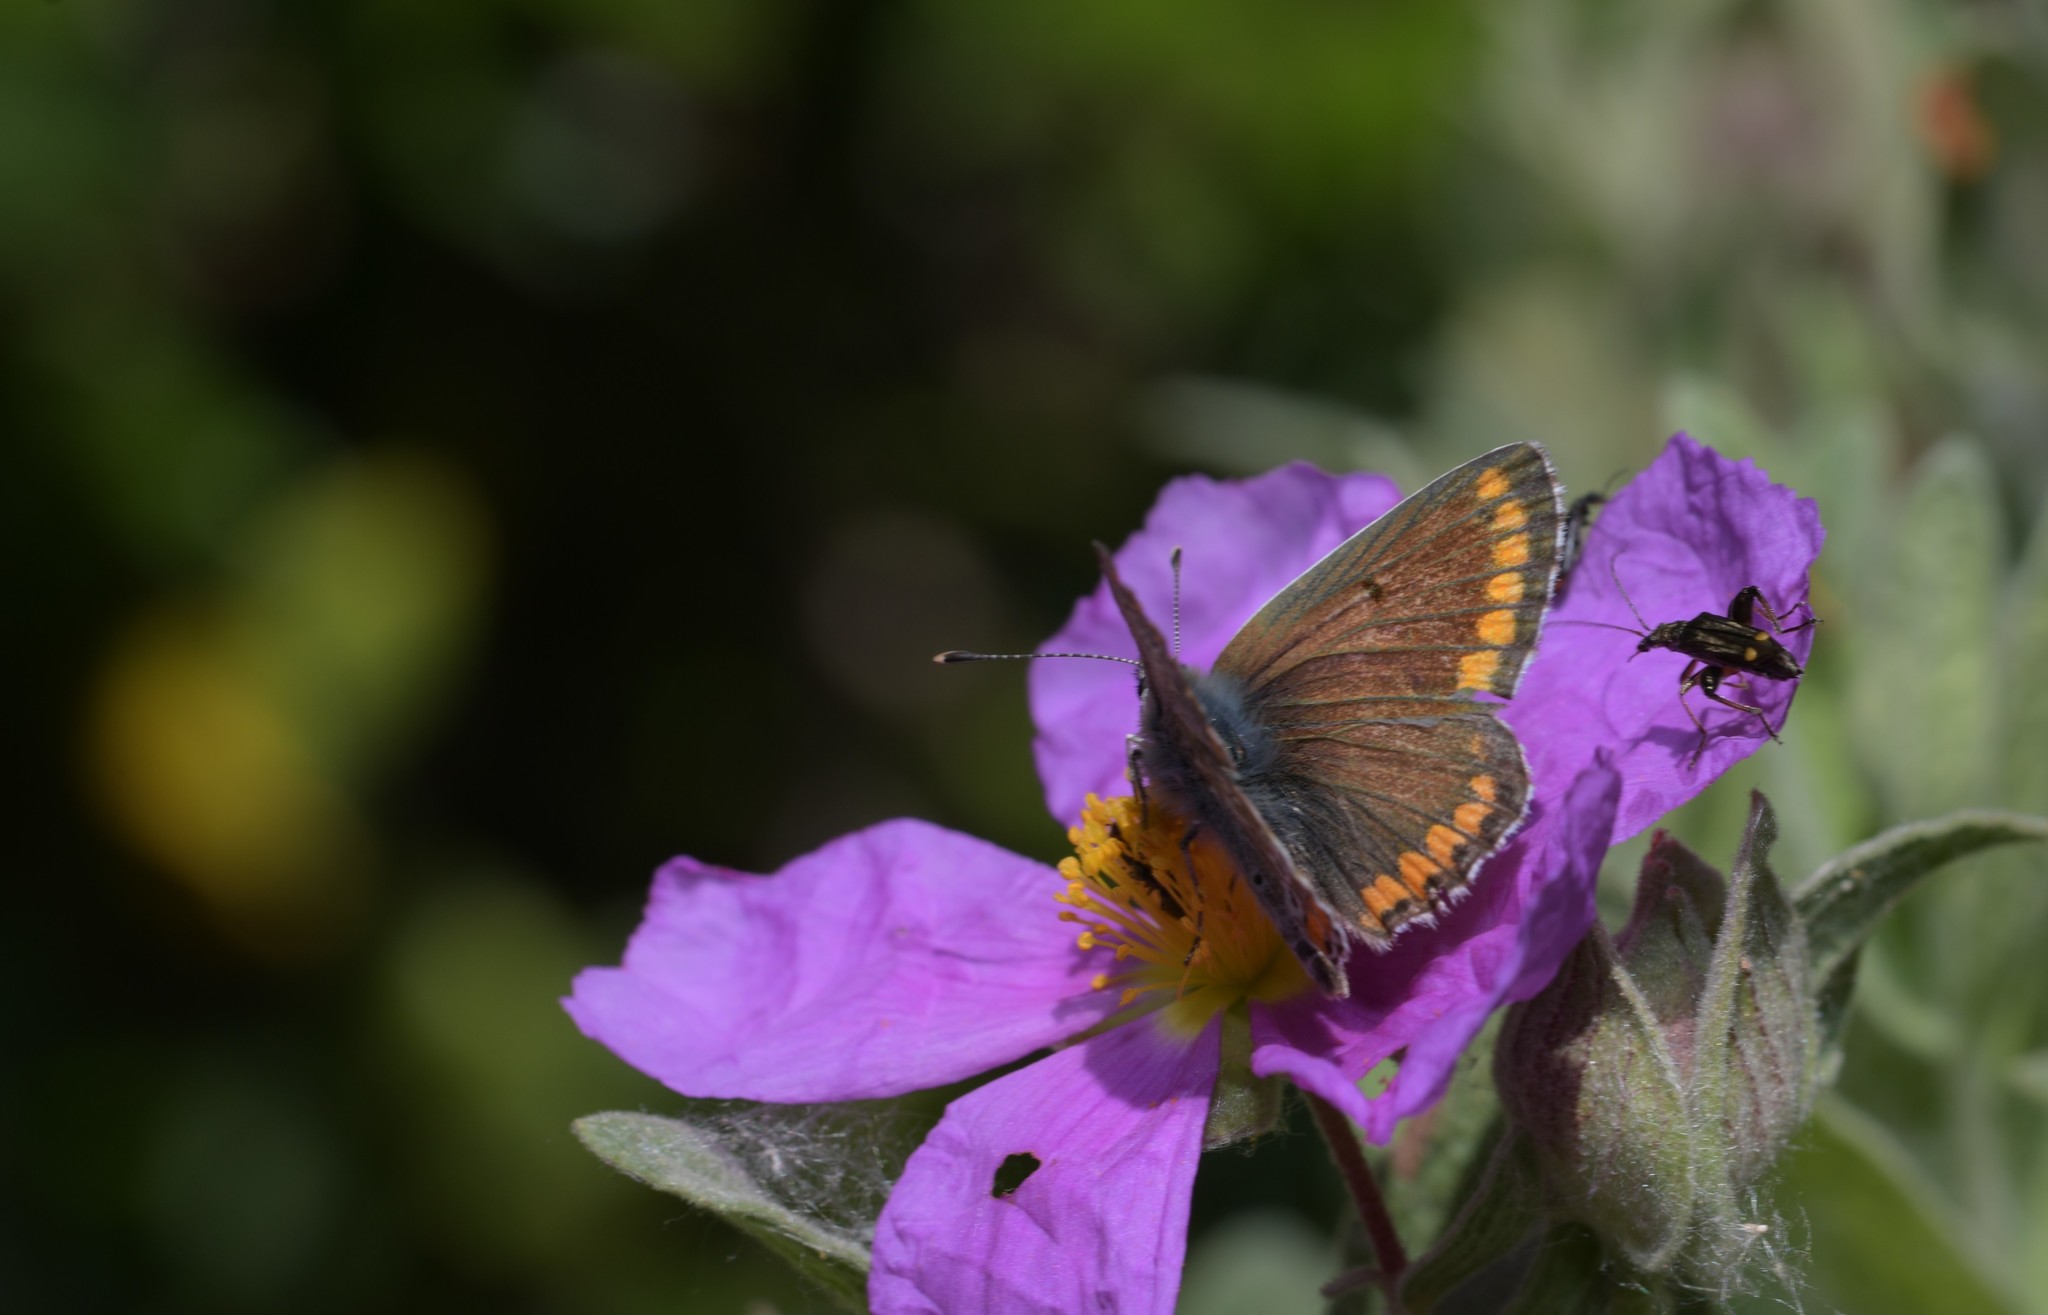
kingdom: Animalia
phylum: Arthropoda
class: Insecta
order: Lepidoptera
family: Lycaenidae
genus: Aricia
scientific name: Aricia cramera
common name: Eschscholtz´s brown  argus
